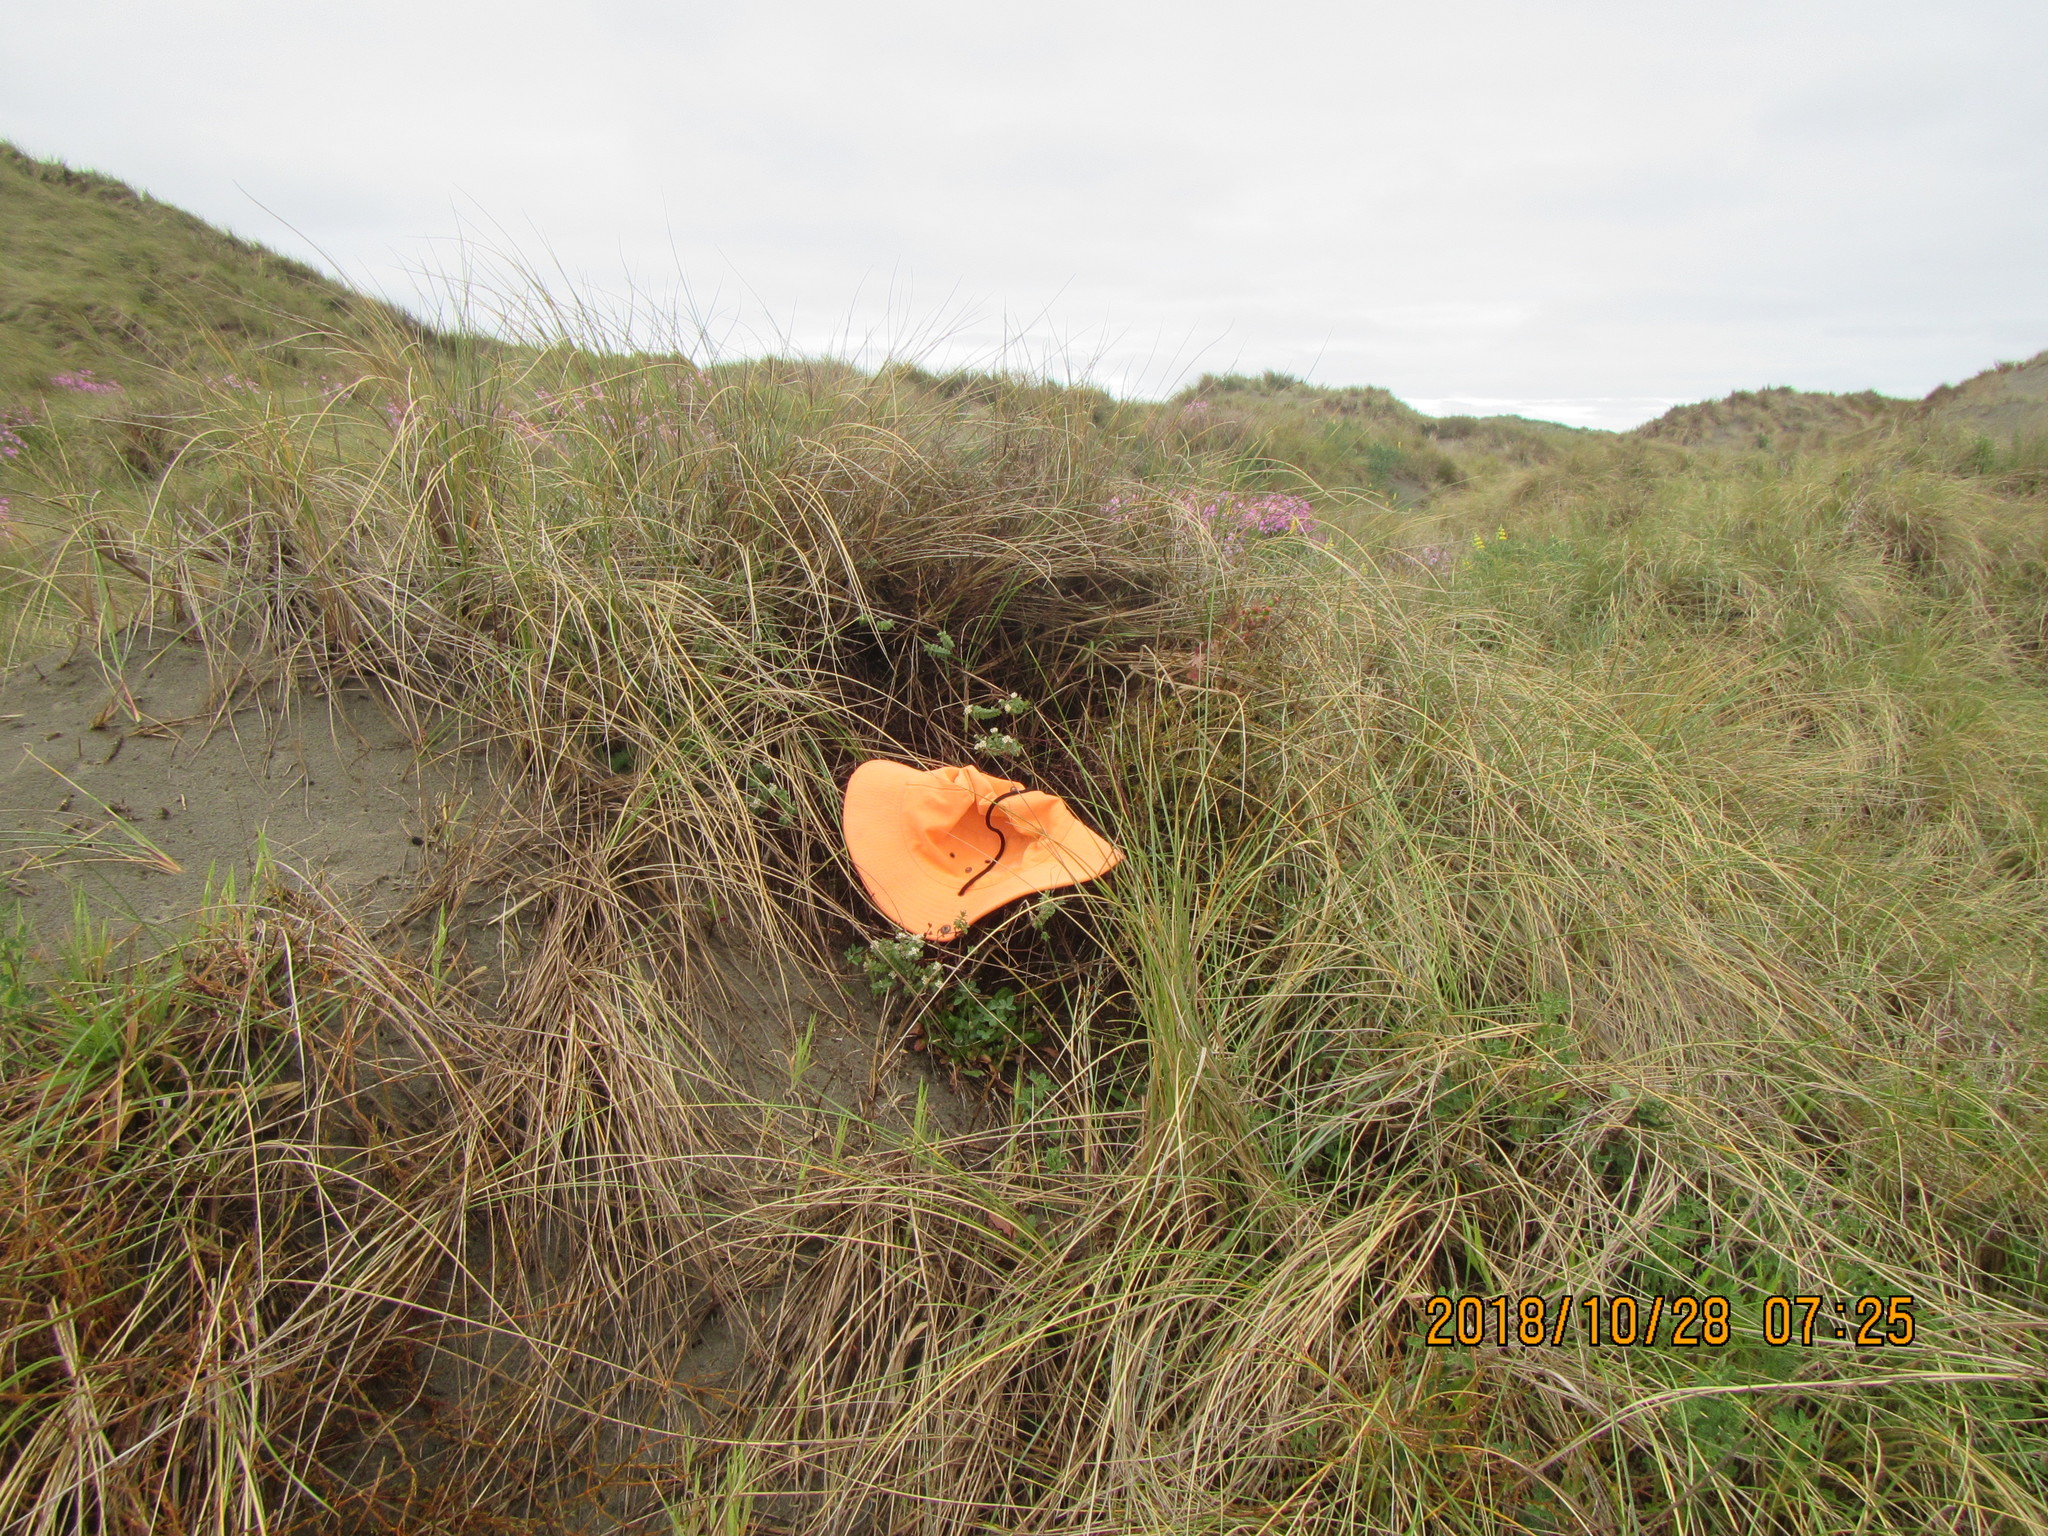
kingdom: Plantae
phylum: Tracheophyta
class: Magnoliopsida
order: Malvales
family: Thymelaeaceae
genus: Pimelea
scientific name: Pimelea villosa
